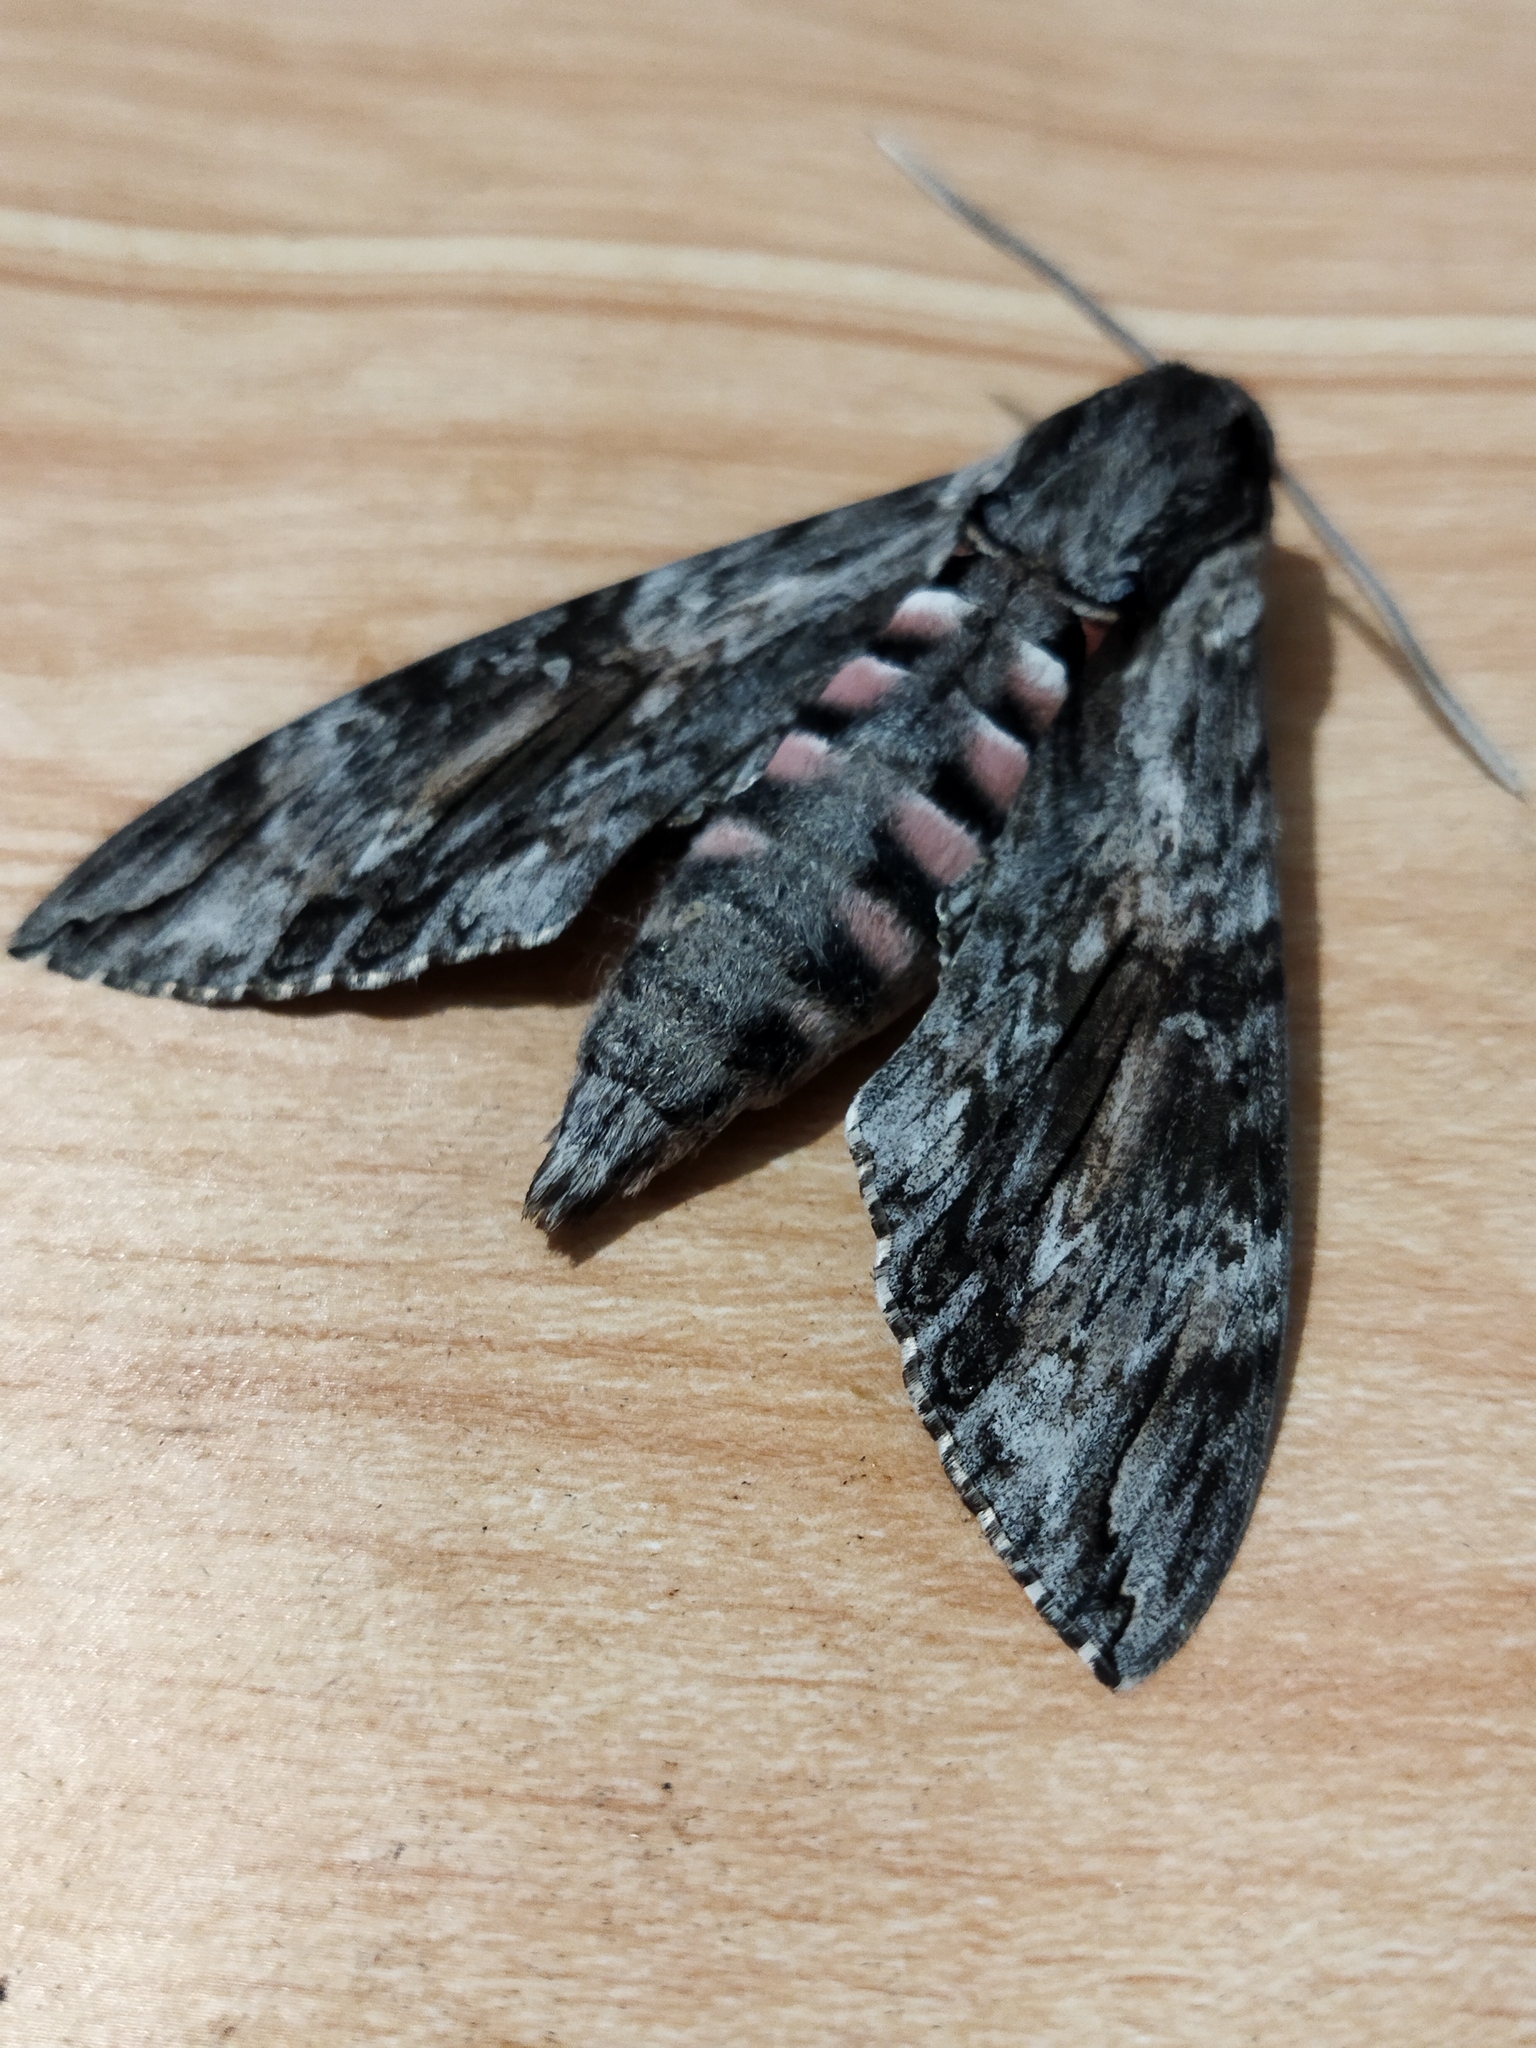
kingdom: Animalia
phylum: Arthropoda
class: Insecta
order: Lepidoptera
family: Sphingidae
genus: Agrius
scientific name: Agrius convolvuli
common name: Convolvulus hawkmoth
